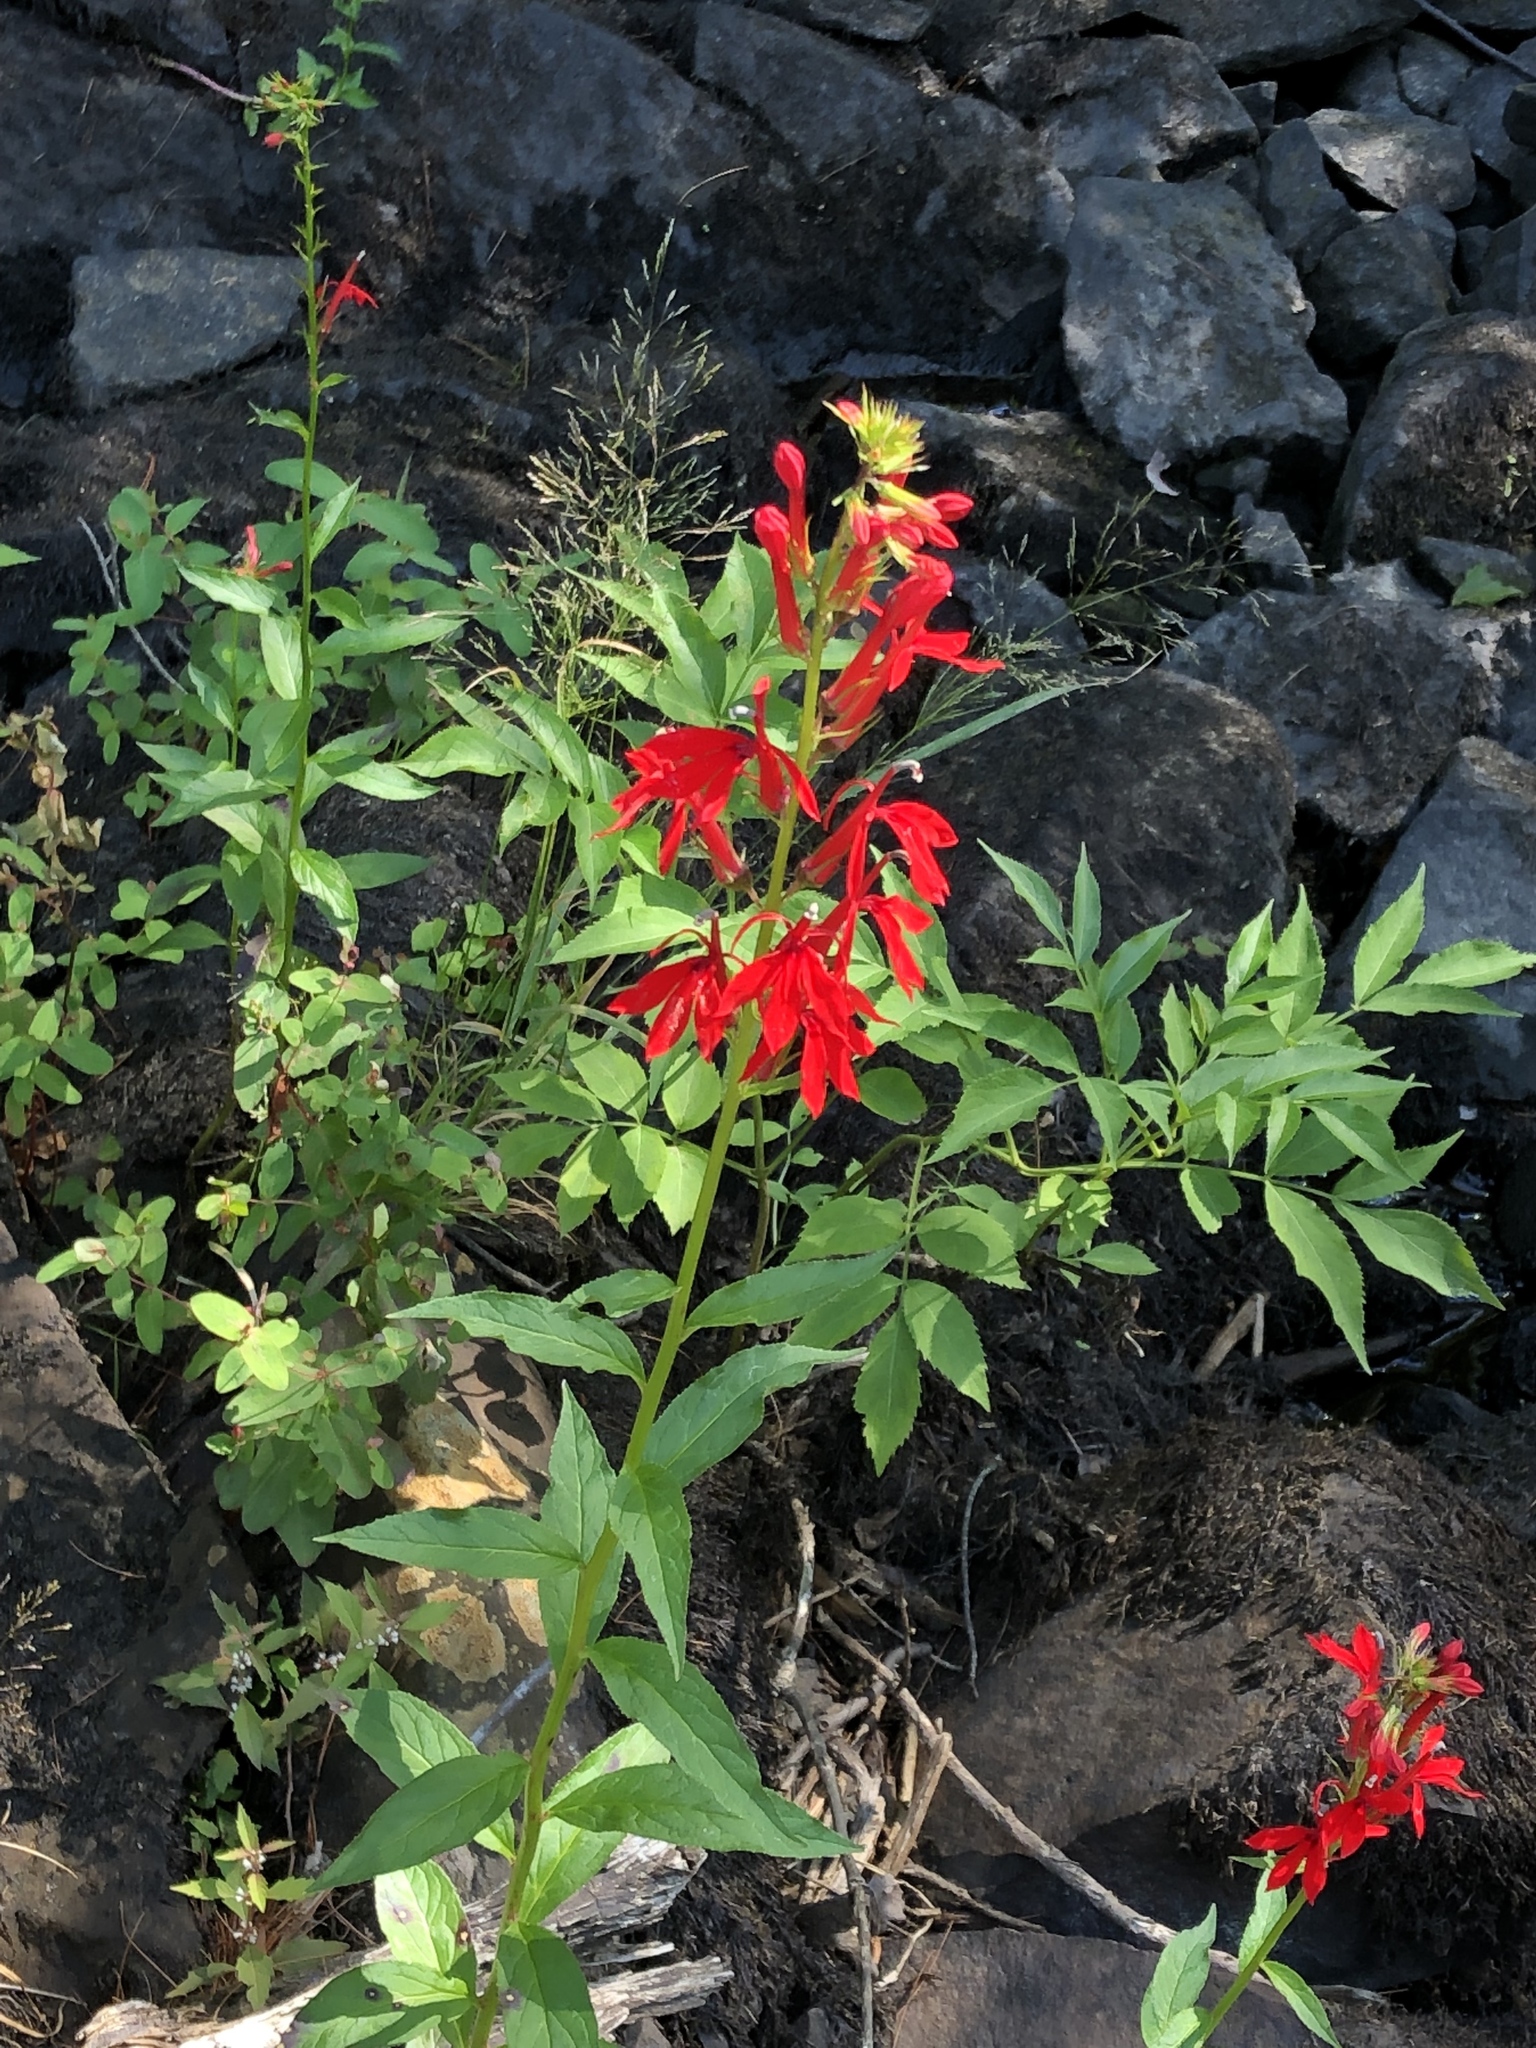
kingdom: Plantae
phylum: Tracheophyta
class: Magnoliopsida
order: Asterales
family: Campanulaceae
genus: Lobelia
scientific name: Lobelia cardinalis
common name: Cardinal flower
